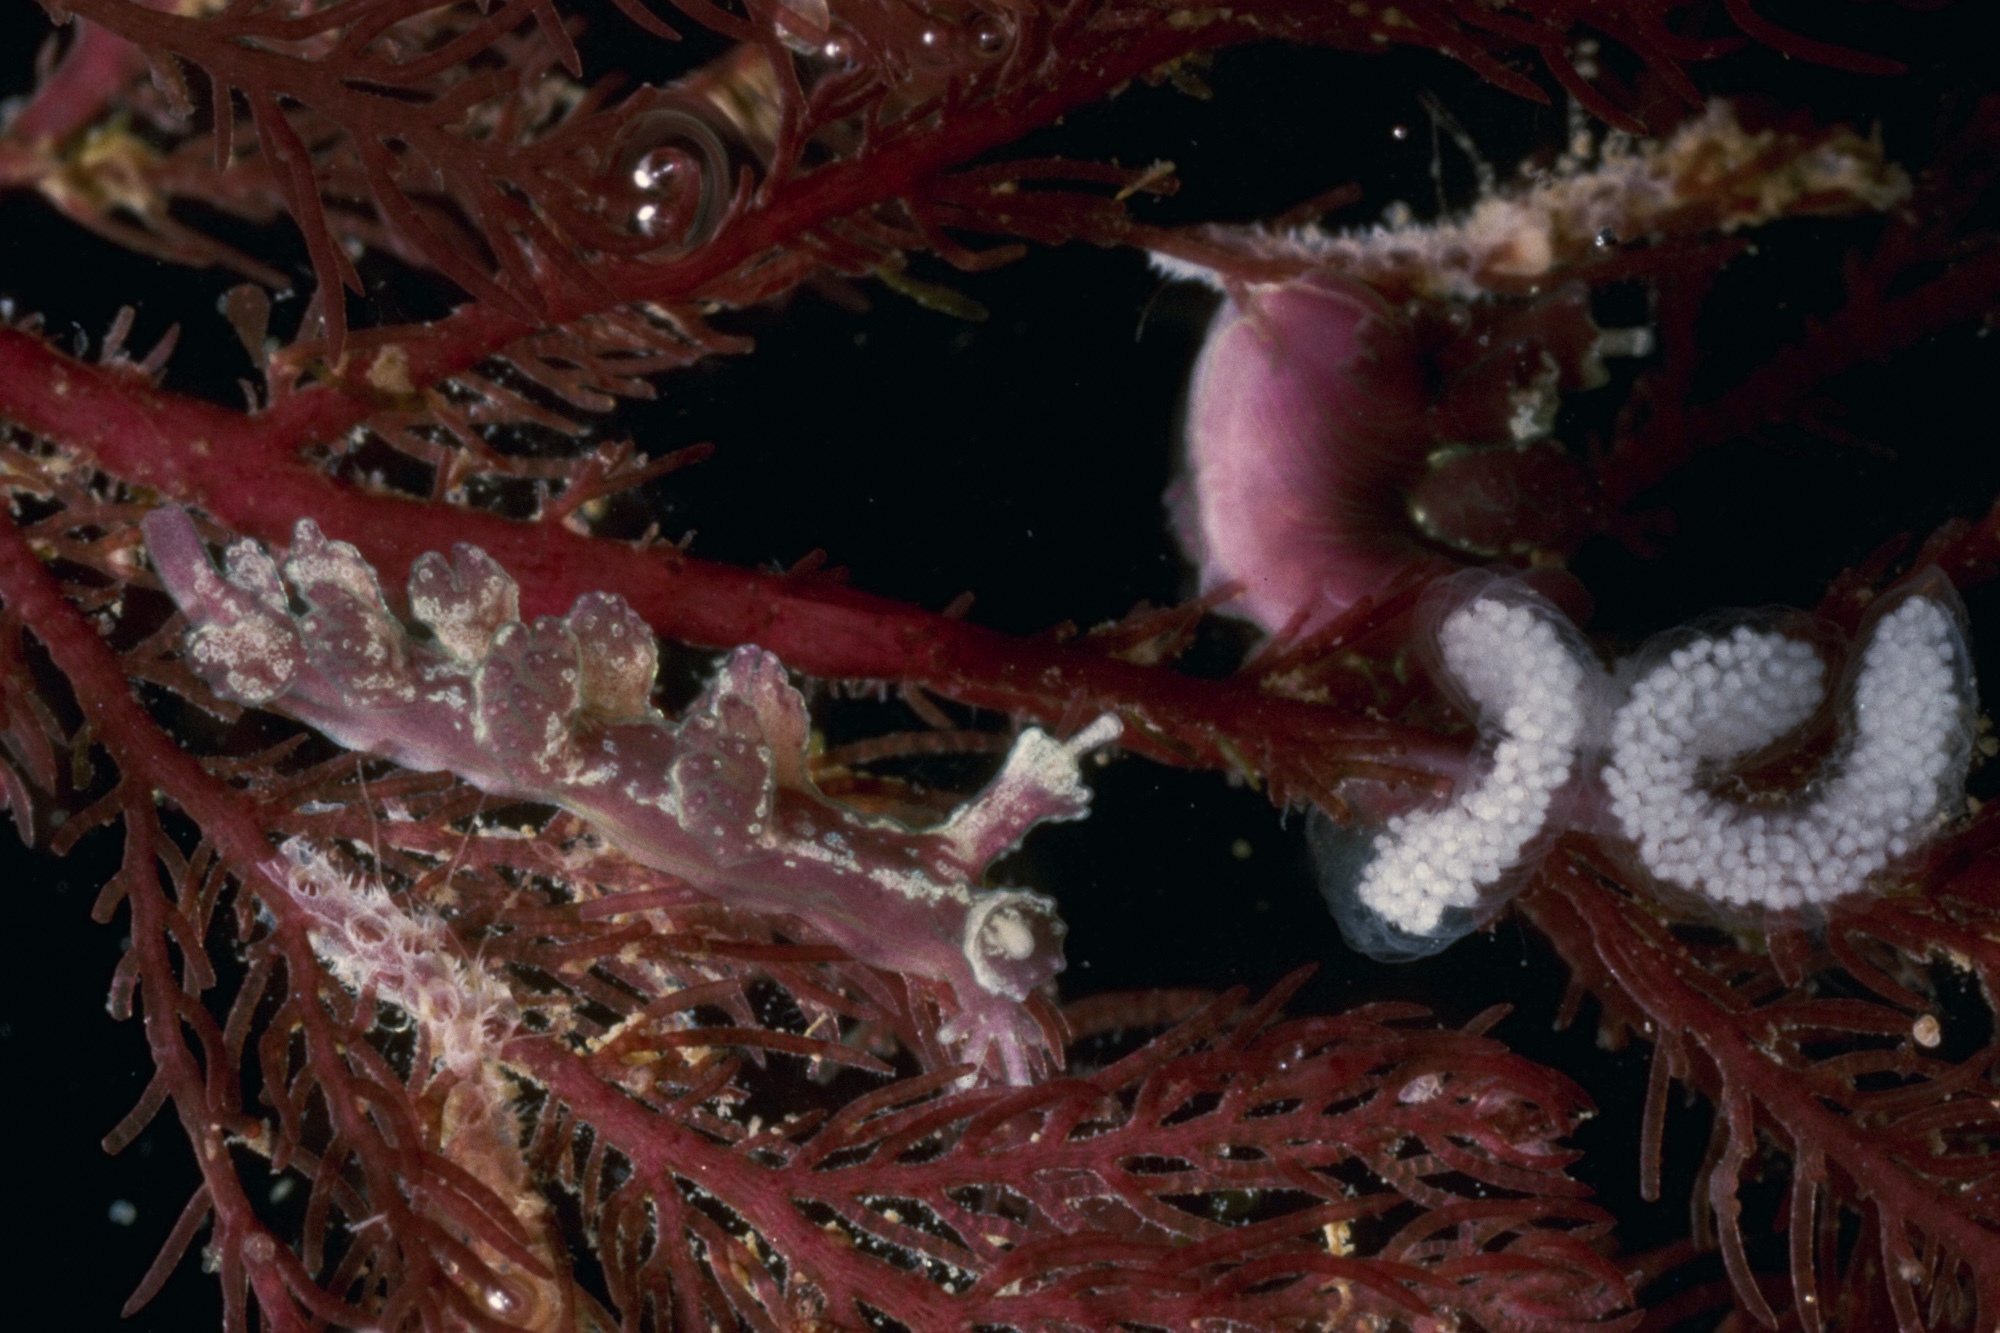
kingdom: Animalia
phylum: Mollusca
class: Gastropoda
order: Nudibranchia
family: Hancockiidae
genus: Hancockia
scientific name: Hancockia uncinata
